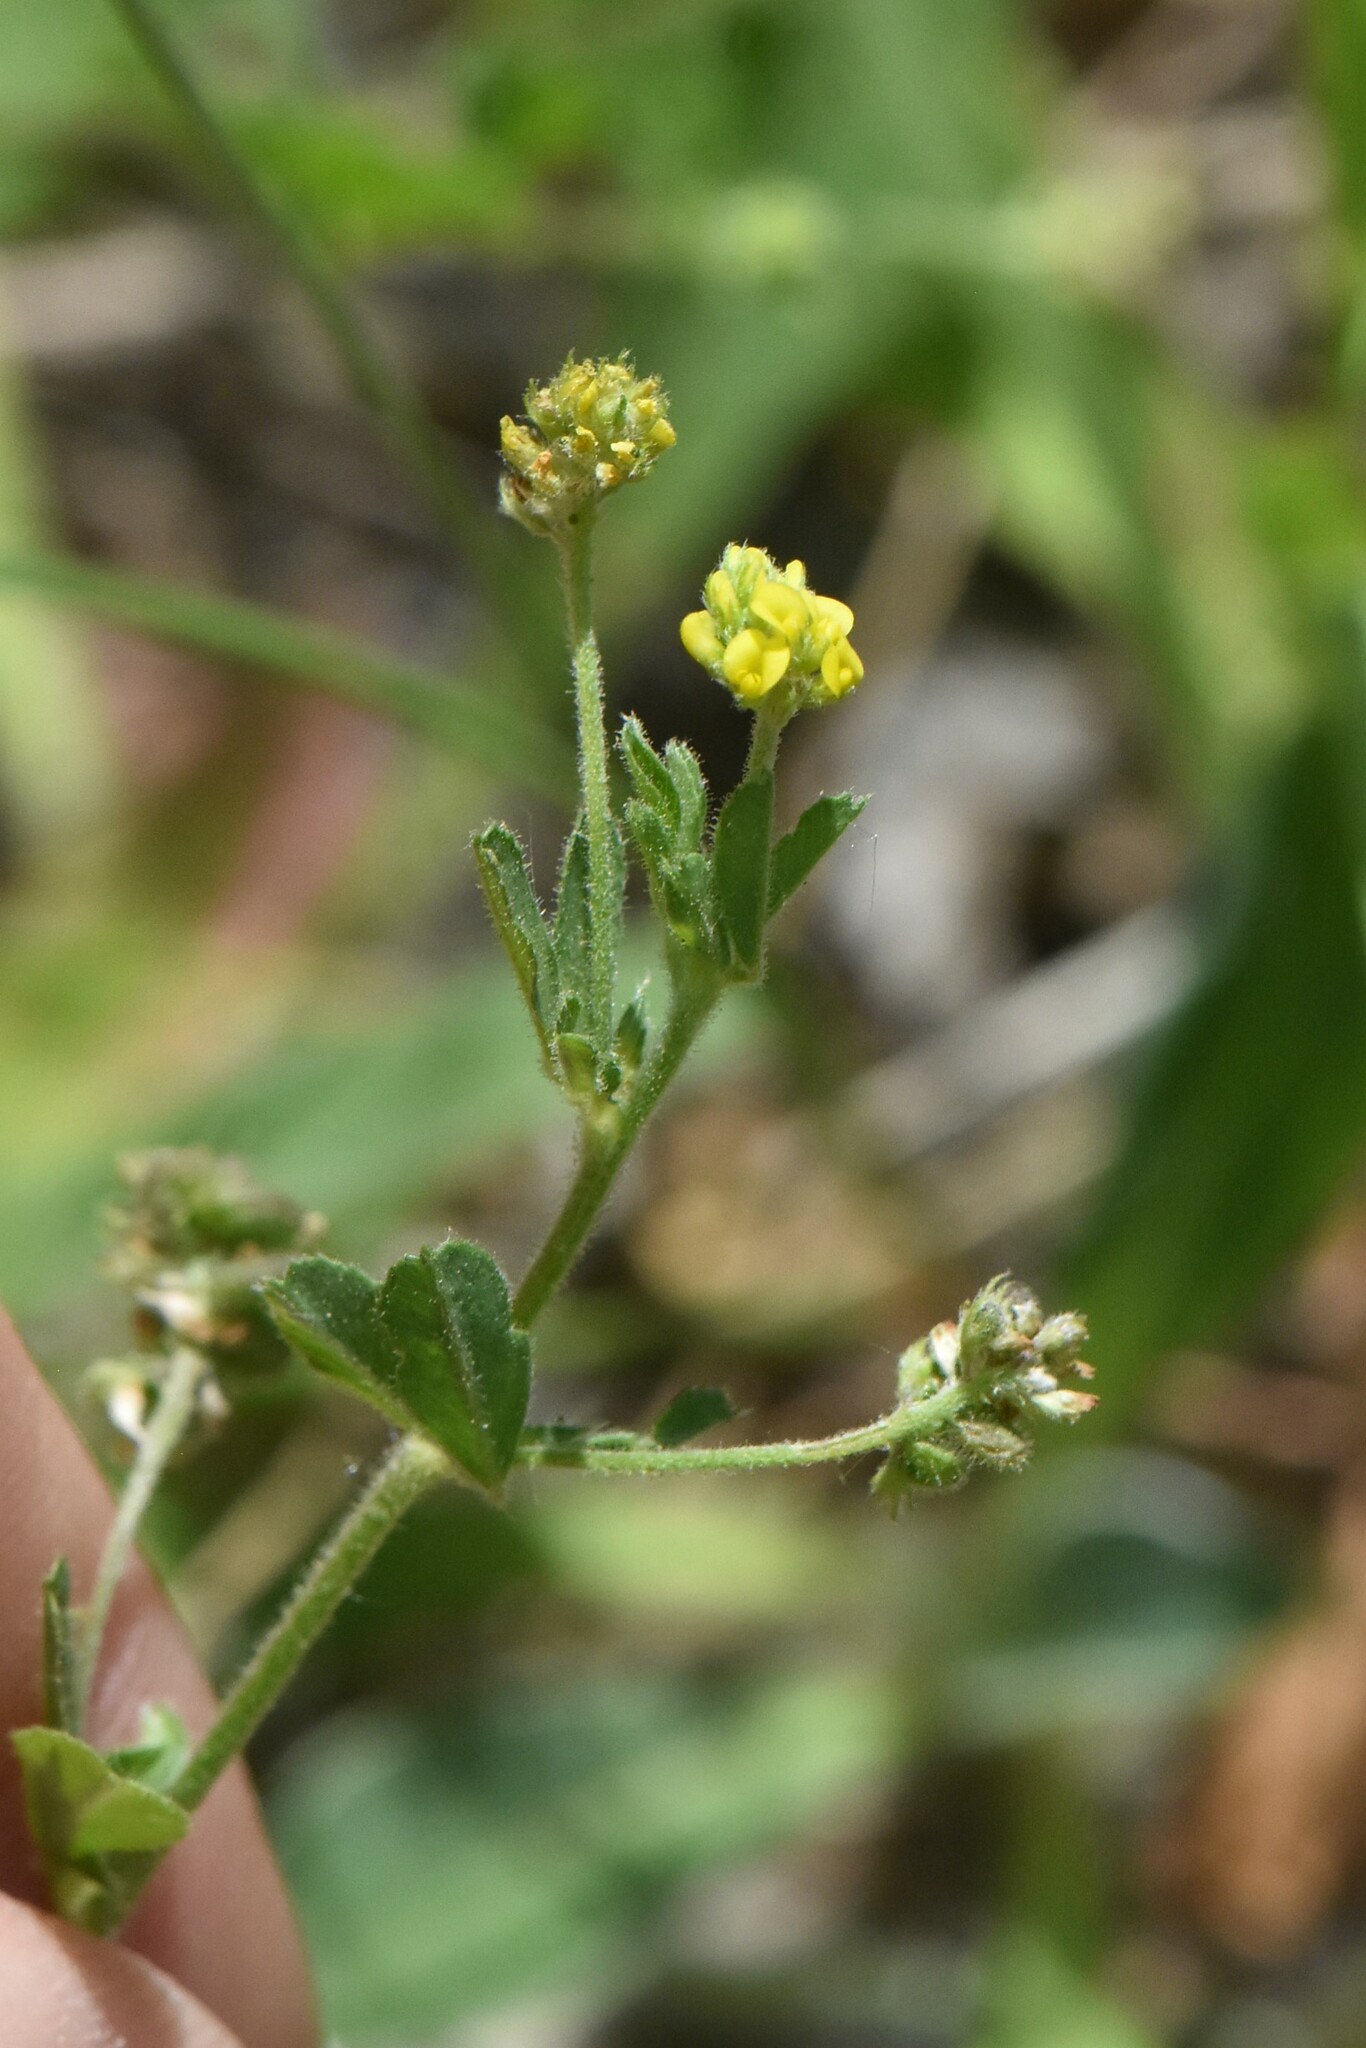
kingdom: Plantae
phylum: Tracheophyta
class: Magnoliopsida
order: Fabales
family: Fabaceae
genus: Medicago
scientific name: Medicago lupulina
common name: Black medick
